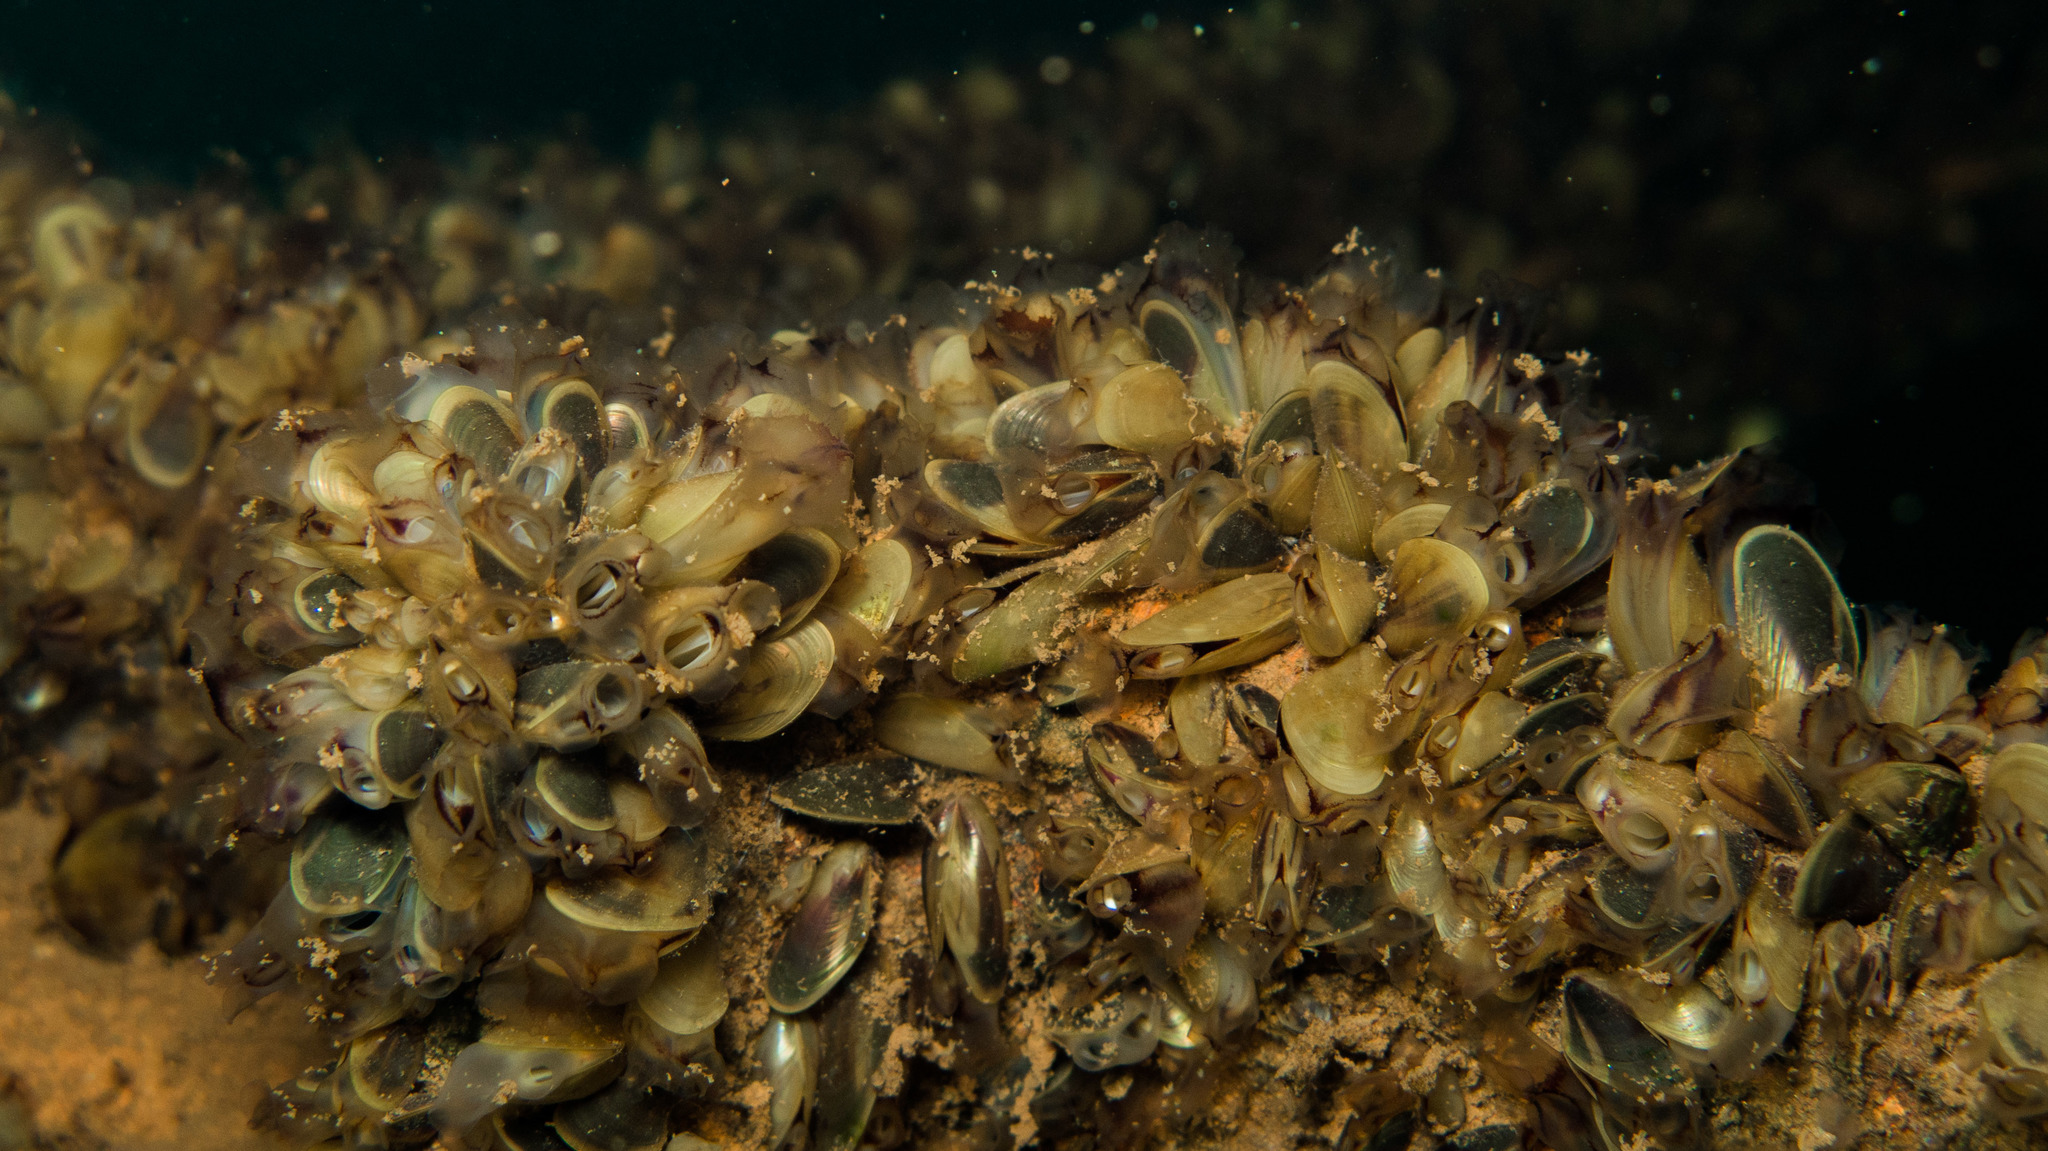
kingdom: Animalia
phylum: Mollusca
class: Bivalvia
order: Mytilida
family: Mytilidae
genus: Limnoperna
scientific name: Limnoperna fortunei
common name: Golden mussel
